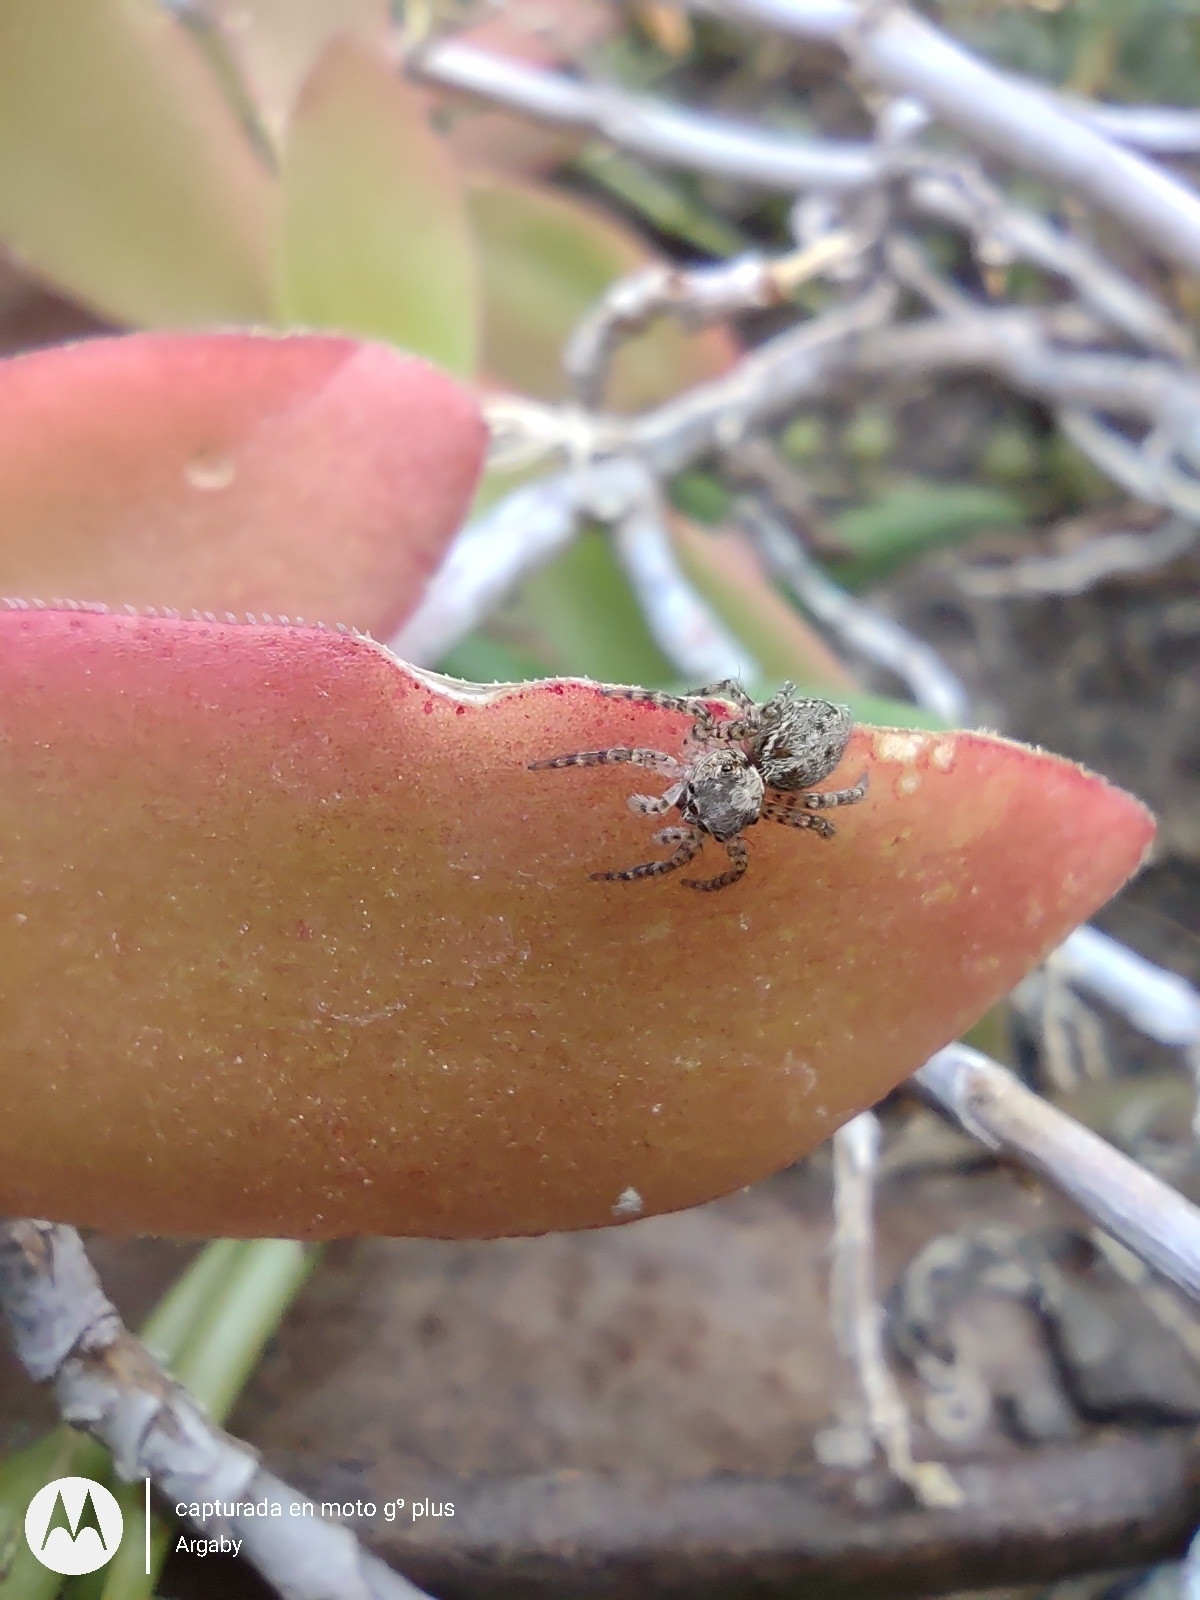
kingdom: Animalia
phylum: Arthropoda
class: Arachnida
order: Araneae
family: Salticidae
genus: Saitis
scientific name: Saitis variegatus
